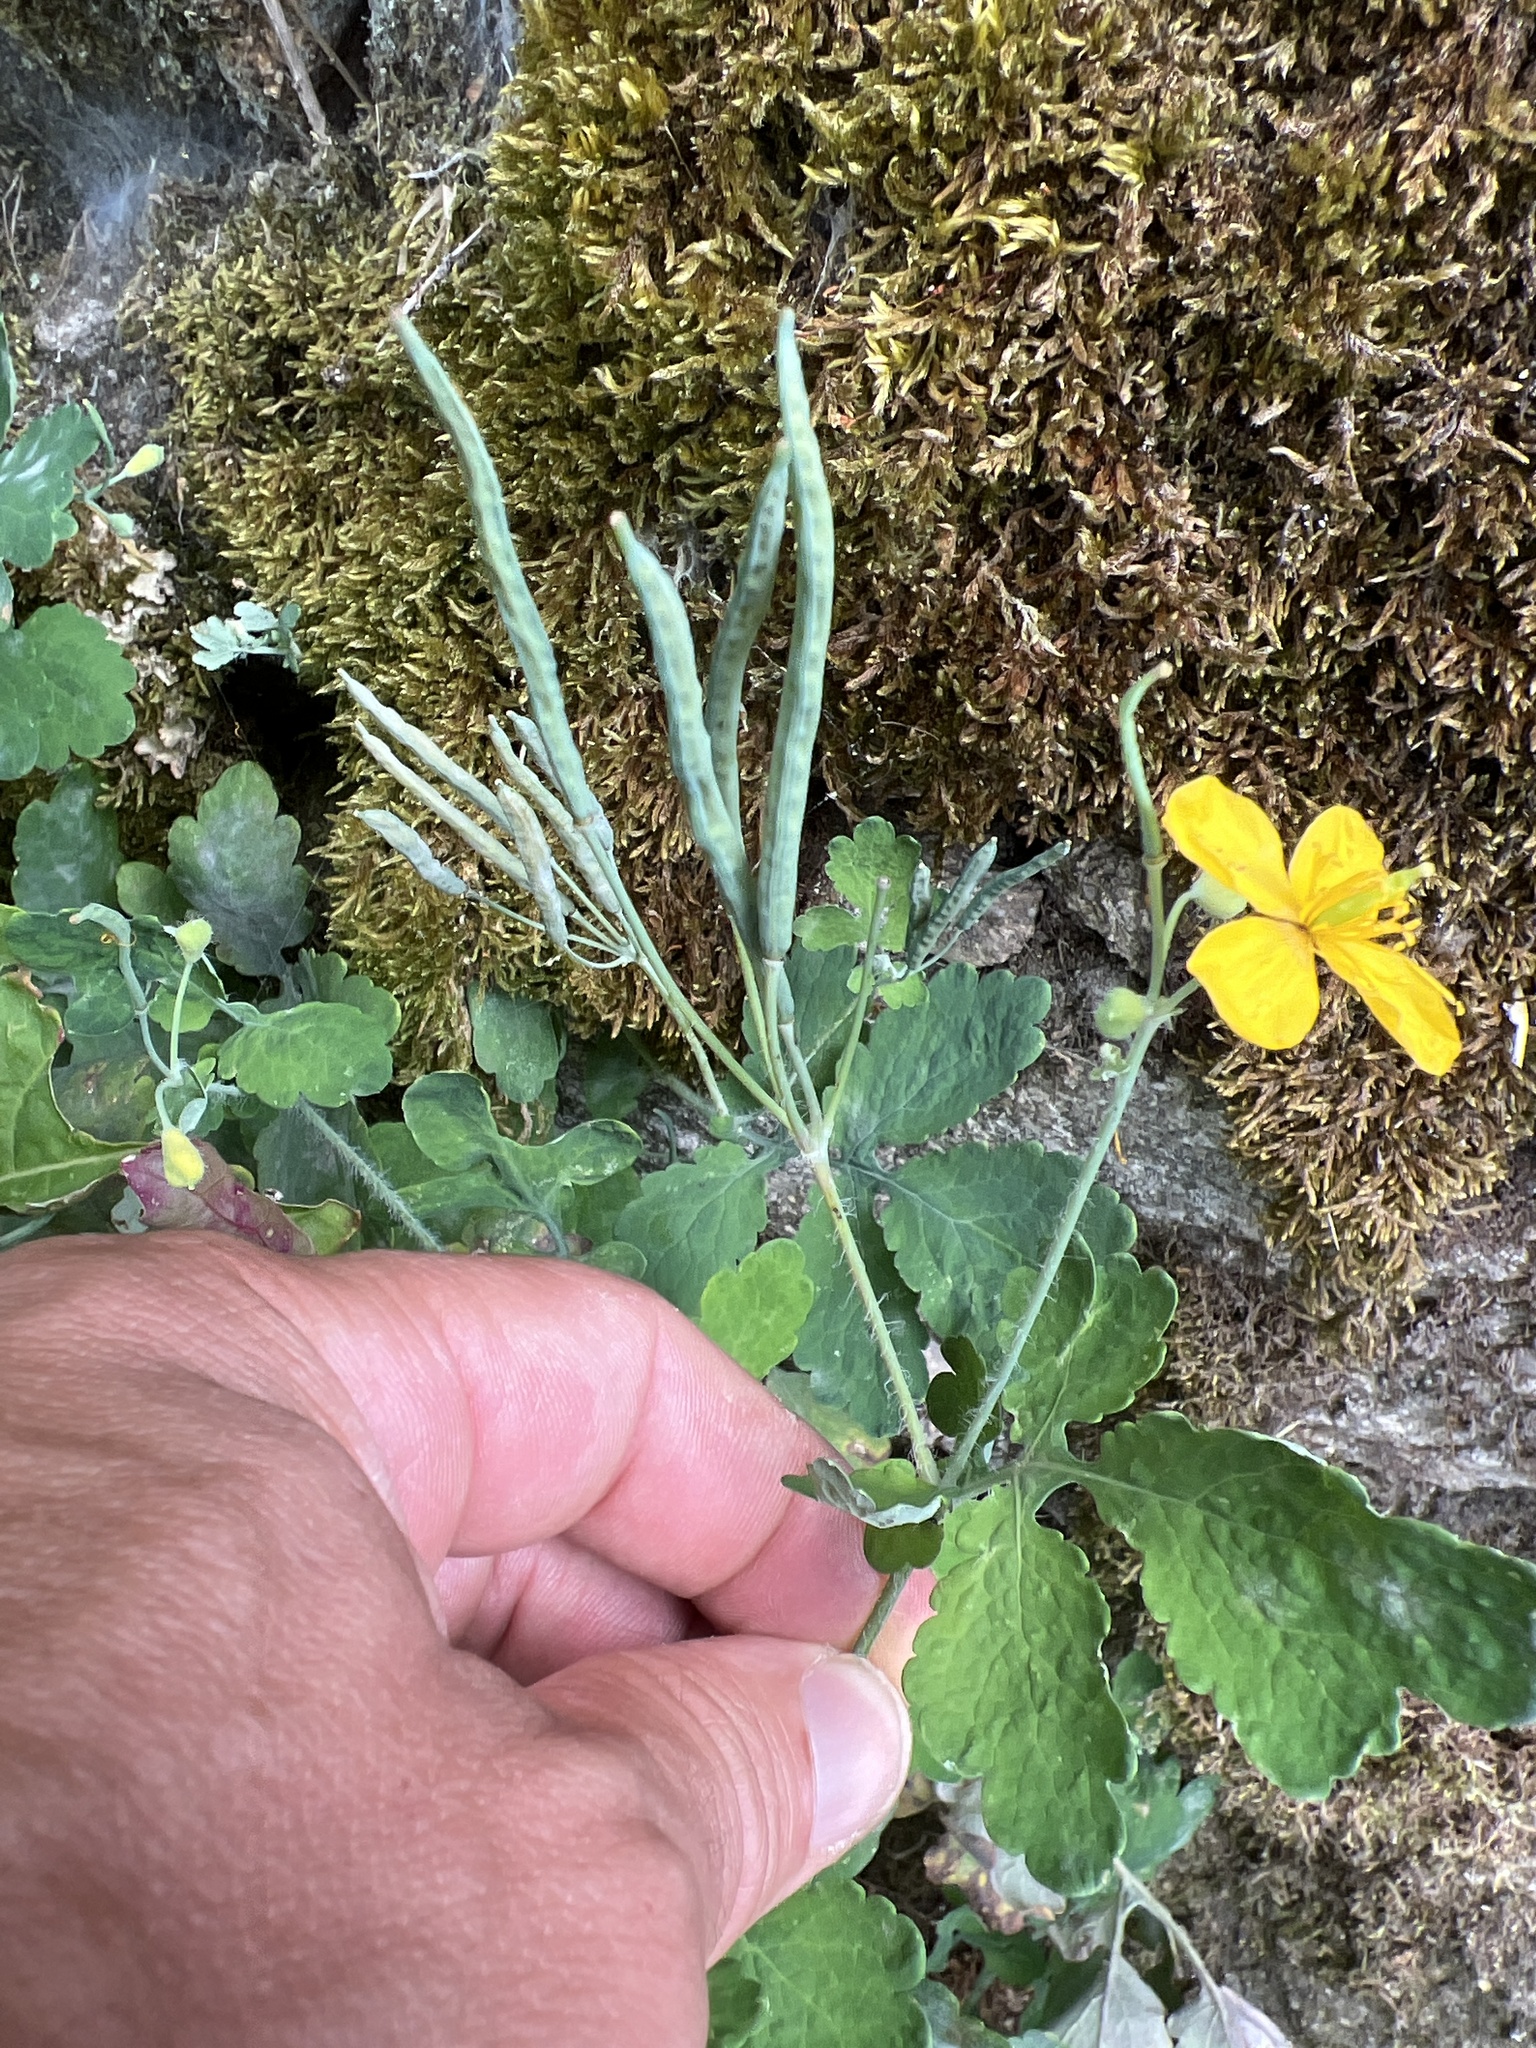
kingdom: Plantae
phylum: Tracheophyta
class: Magnoliopsida
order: Ranunculales
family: Papaveraceae
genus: Chelidonium
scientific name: Chelidonium majus
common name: Greater celandine
